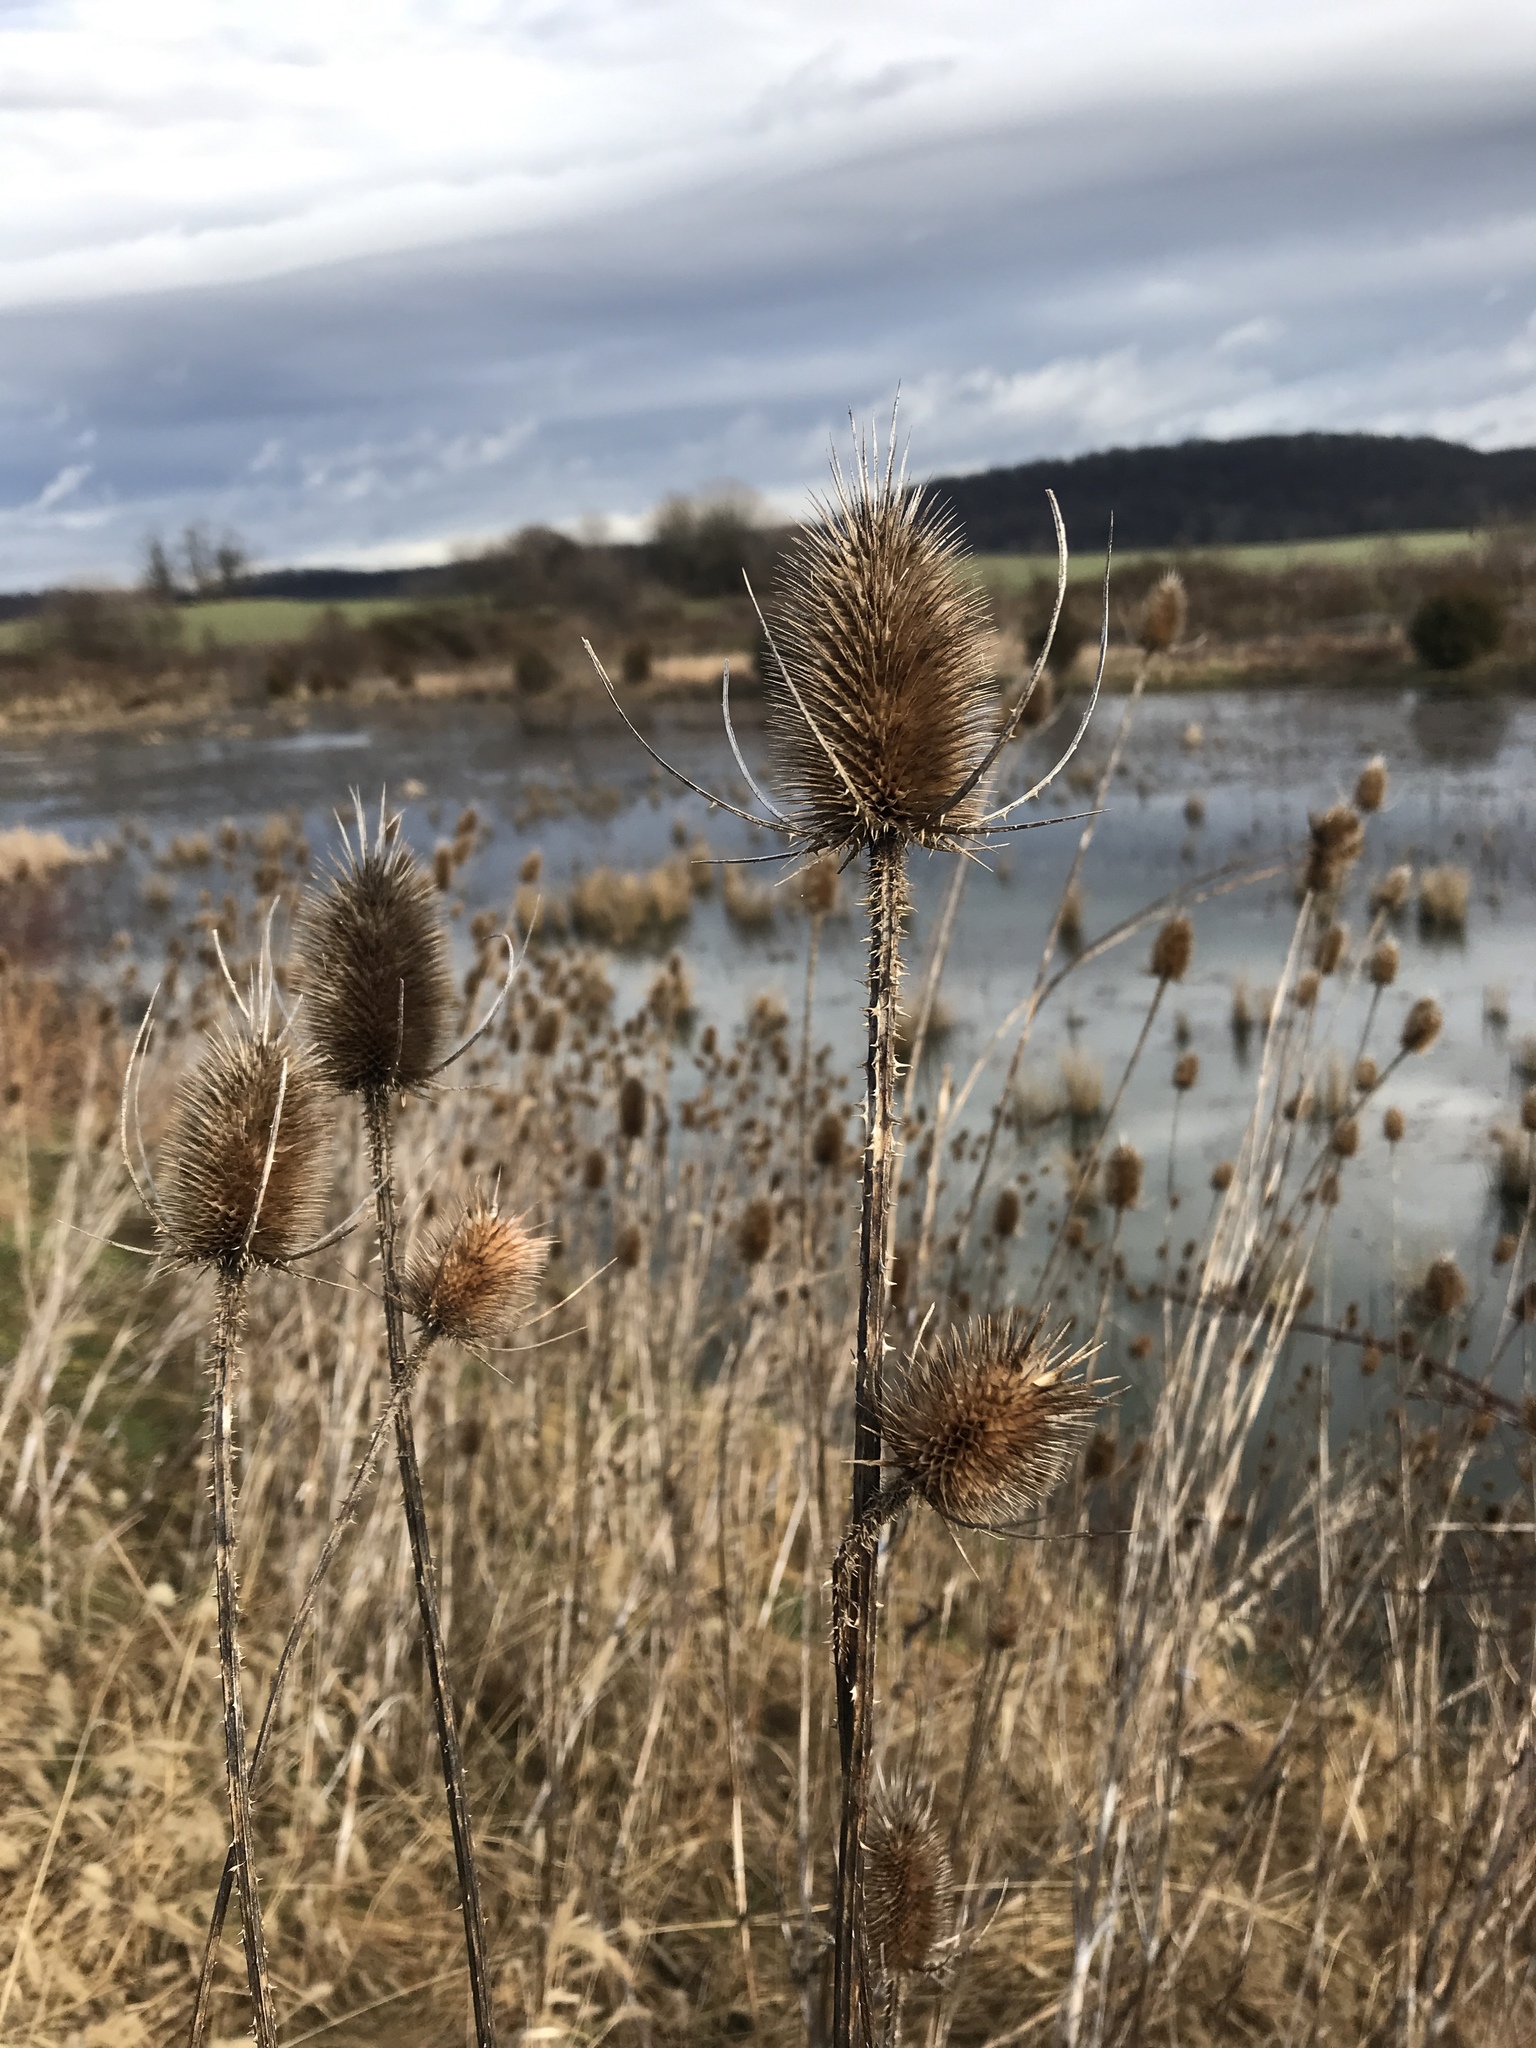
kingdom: Plantae
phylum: Tracheophyta
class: Magnoliopsida
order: Dipsacales
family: Caprifoliaceae
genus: Dipsacus
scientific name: Dipsacus fullonum
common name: Teasel
